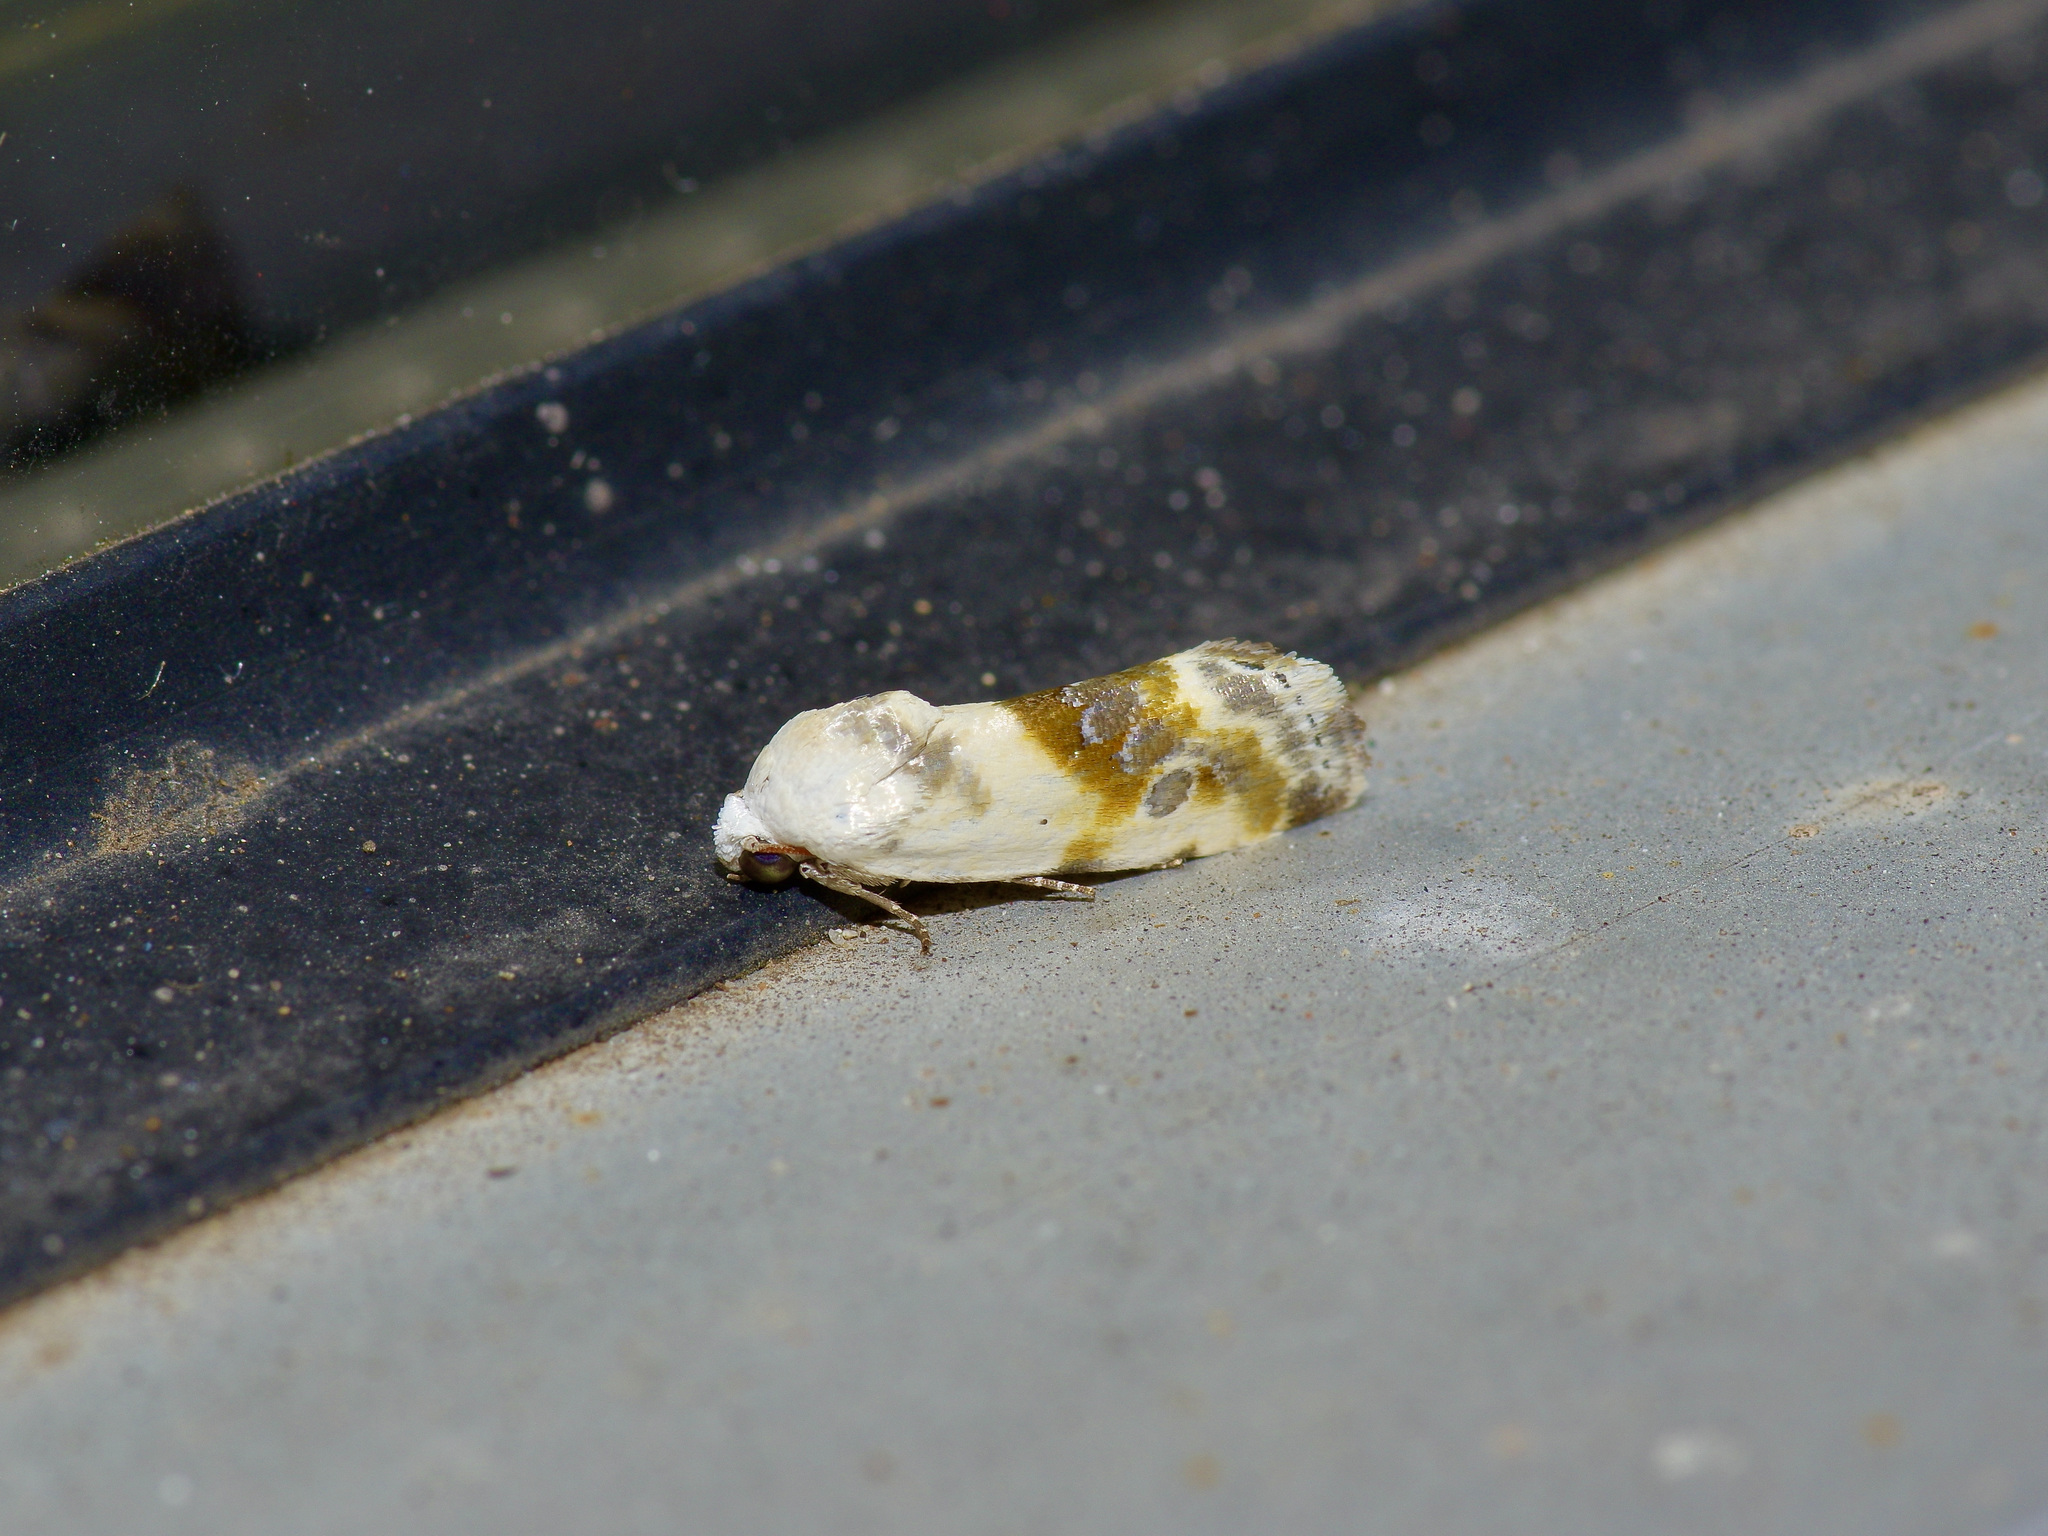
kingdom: Animalia
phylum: Arthropoda
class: Insecta
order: Lepidoptera
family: Noctuidae
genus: Acontia
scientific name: Acontia candefacta
